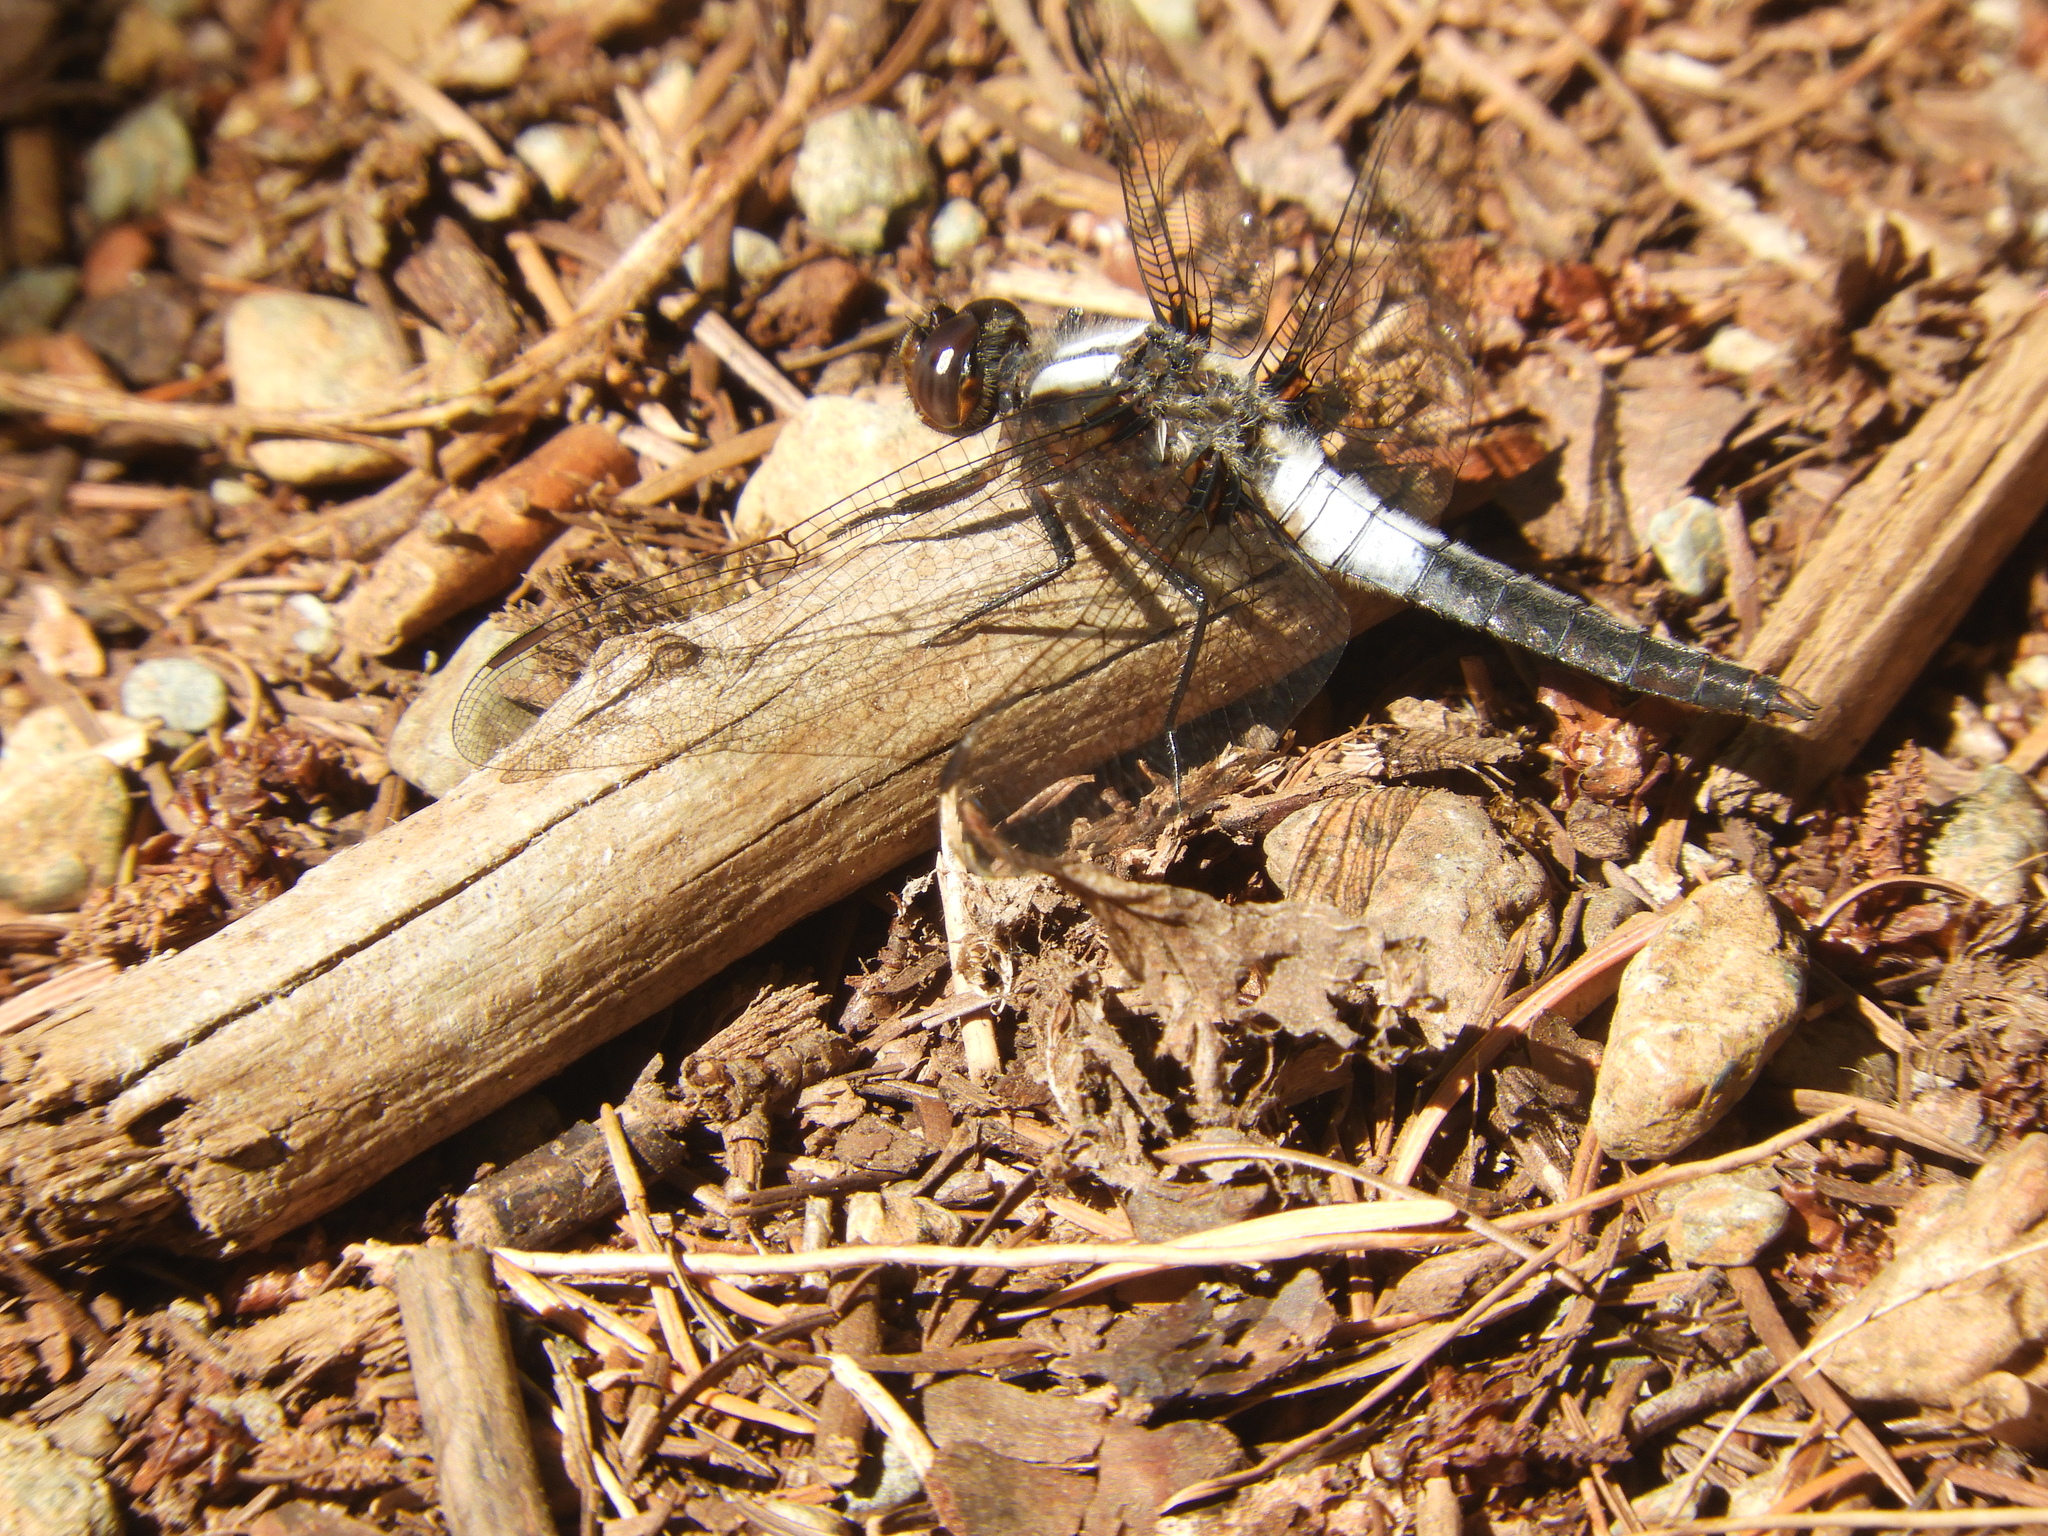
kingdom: Animalia
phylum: Arthropoda
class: Insecta
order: Odonata
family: Libellulidae
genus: Ladona
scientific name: Ladona julia
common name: Chalk-fronted corporal
